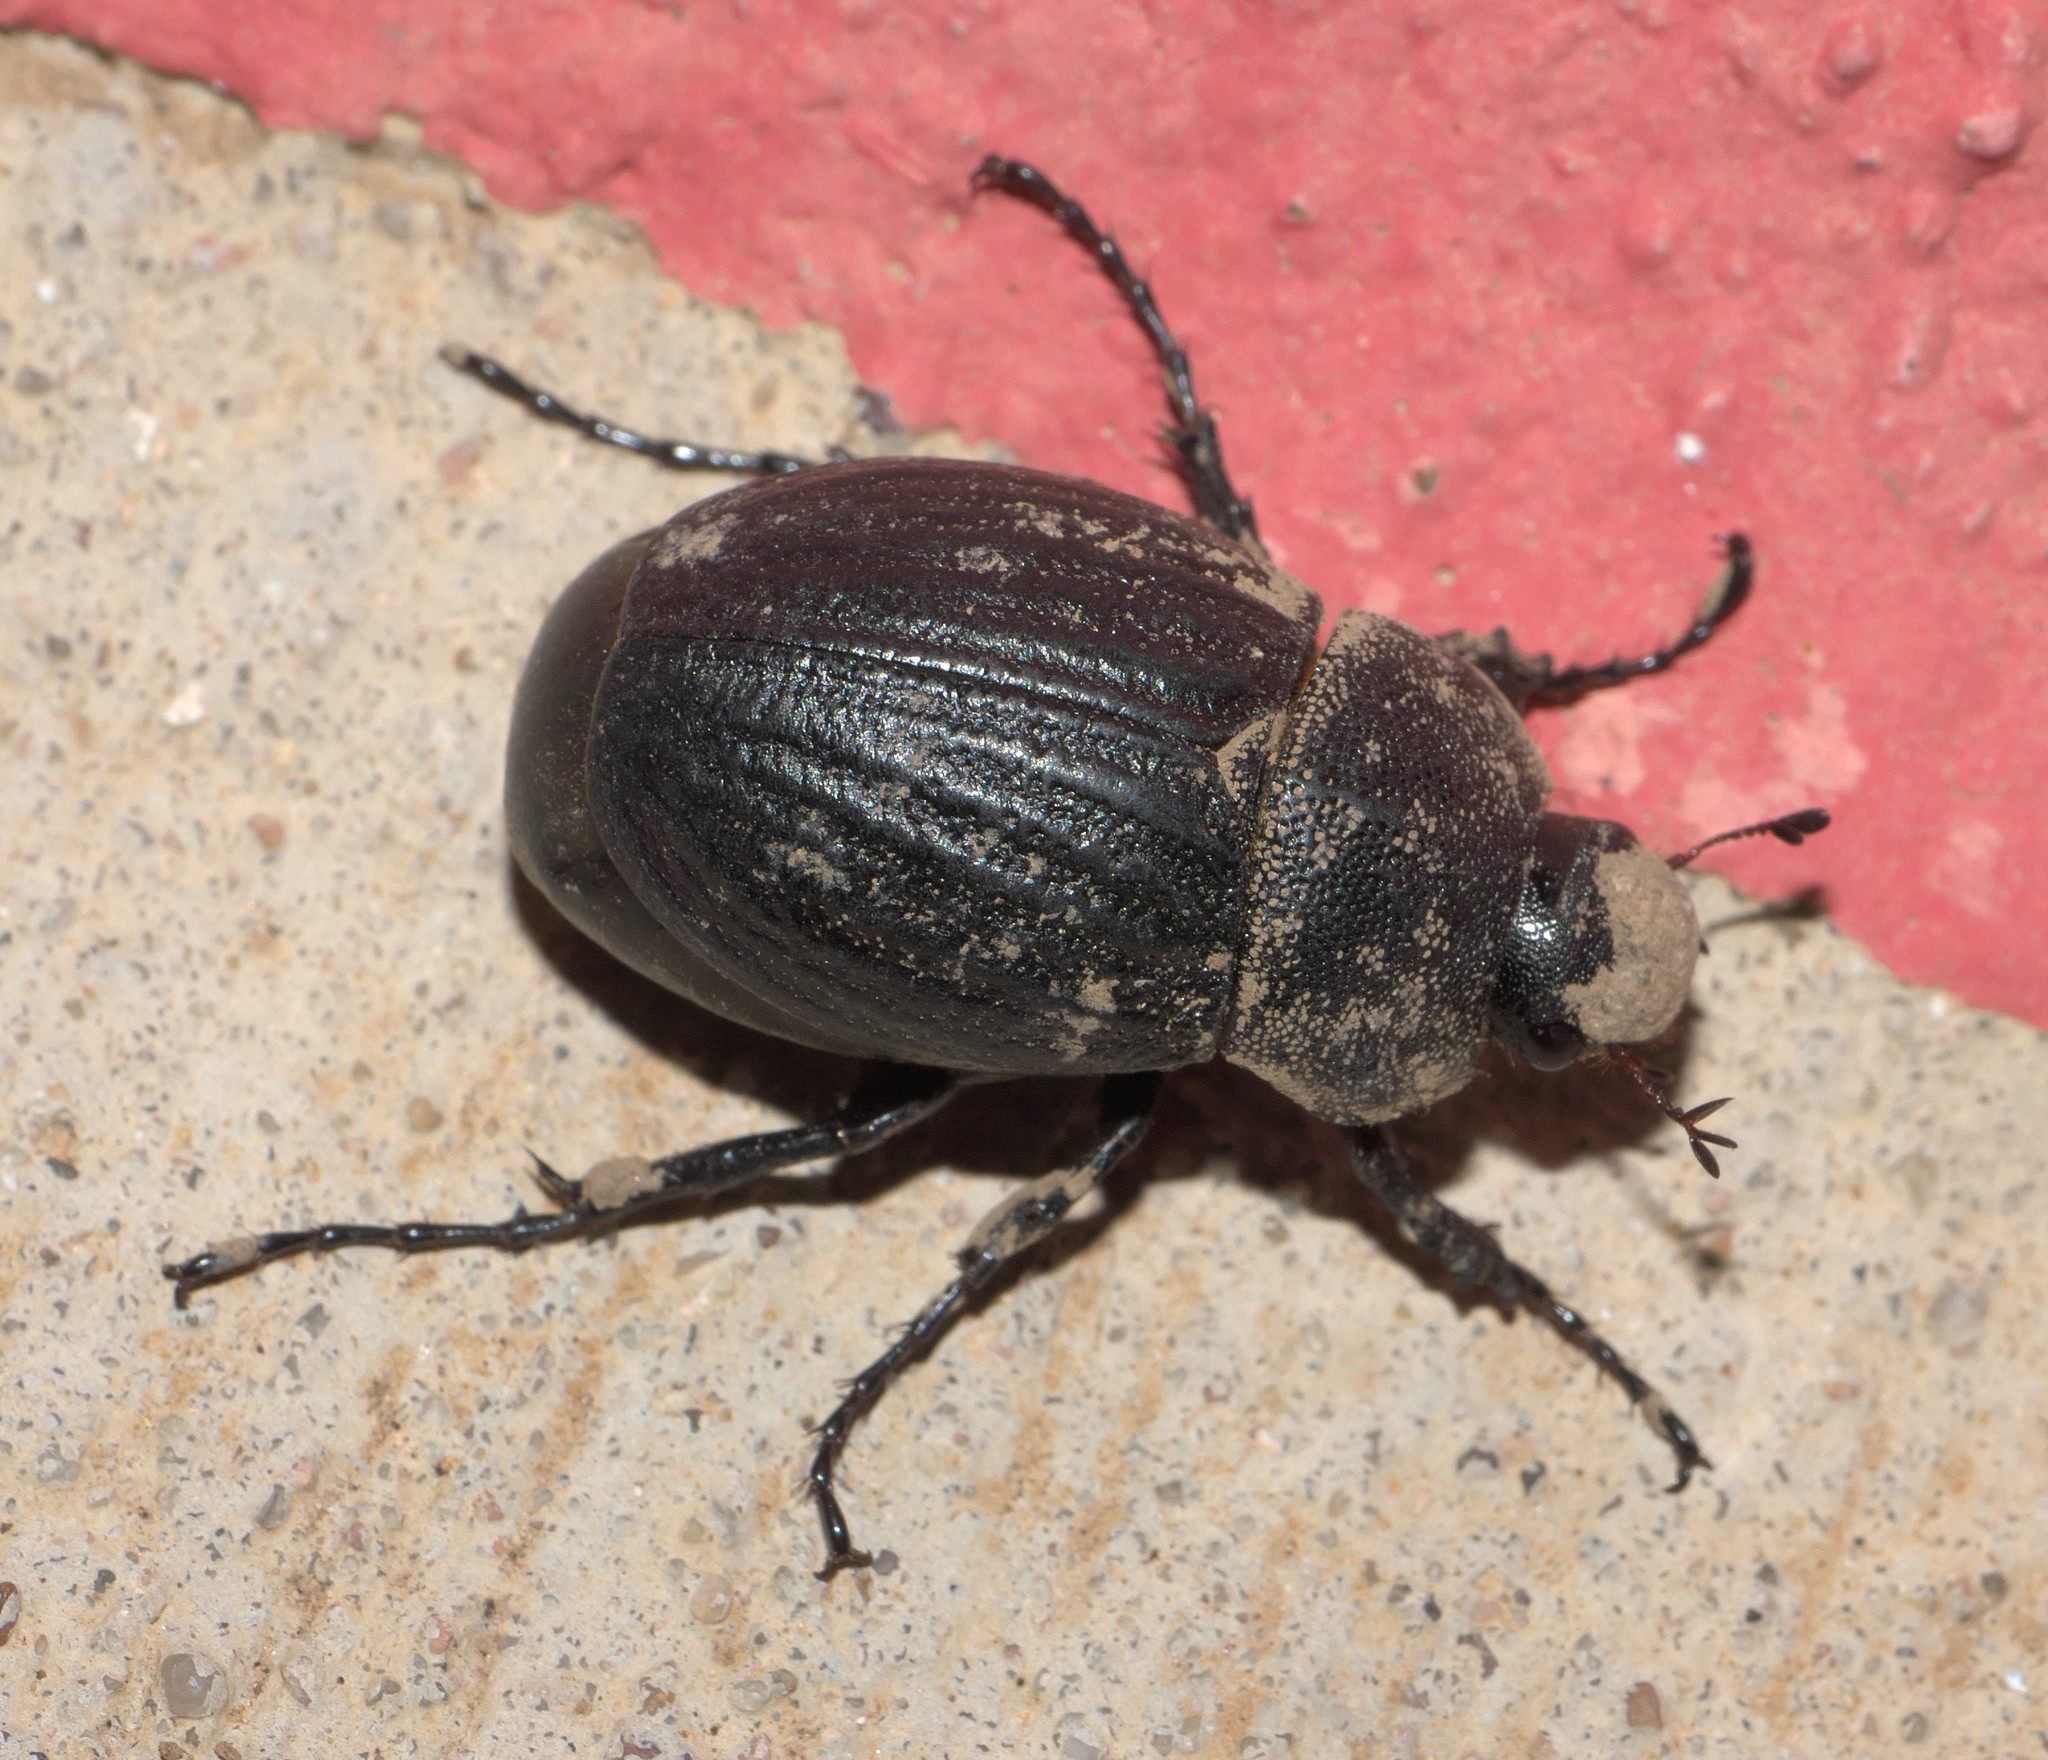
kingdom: Animalia
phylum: Arthropoda
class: Insecta
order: Coleoptera
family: Scarabaeidae
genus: Phyllophaga
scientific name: Phyllophaga cribrosa
